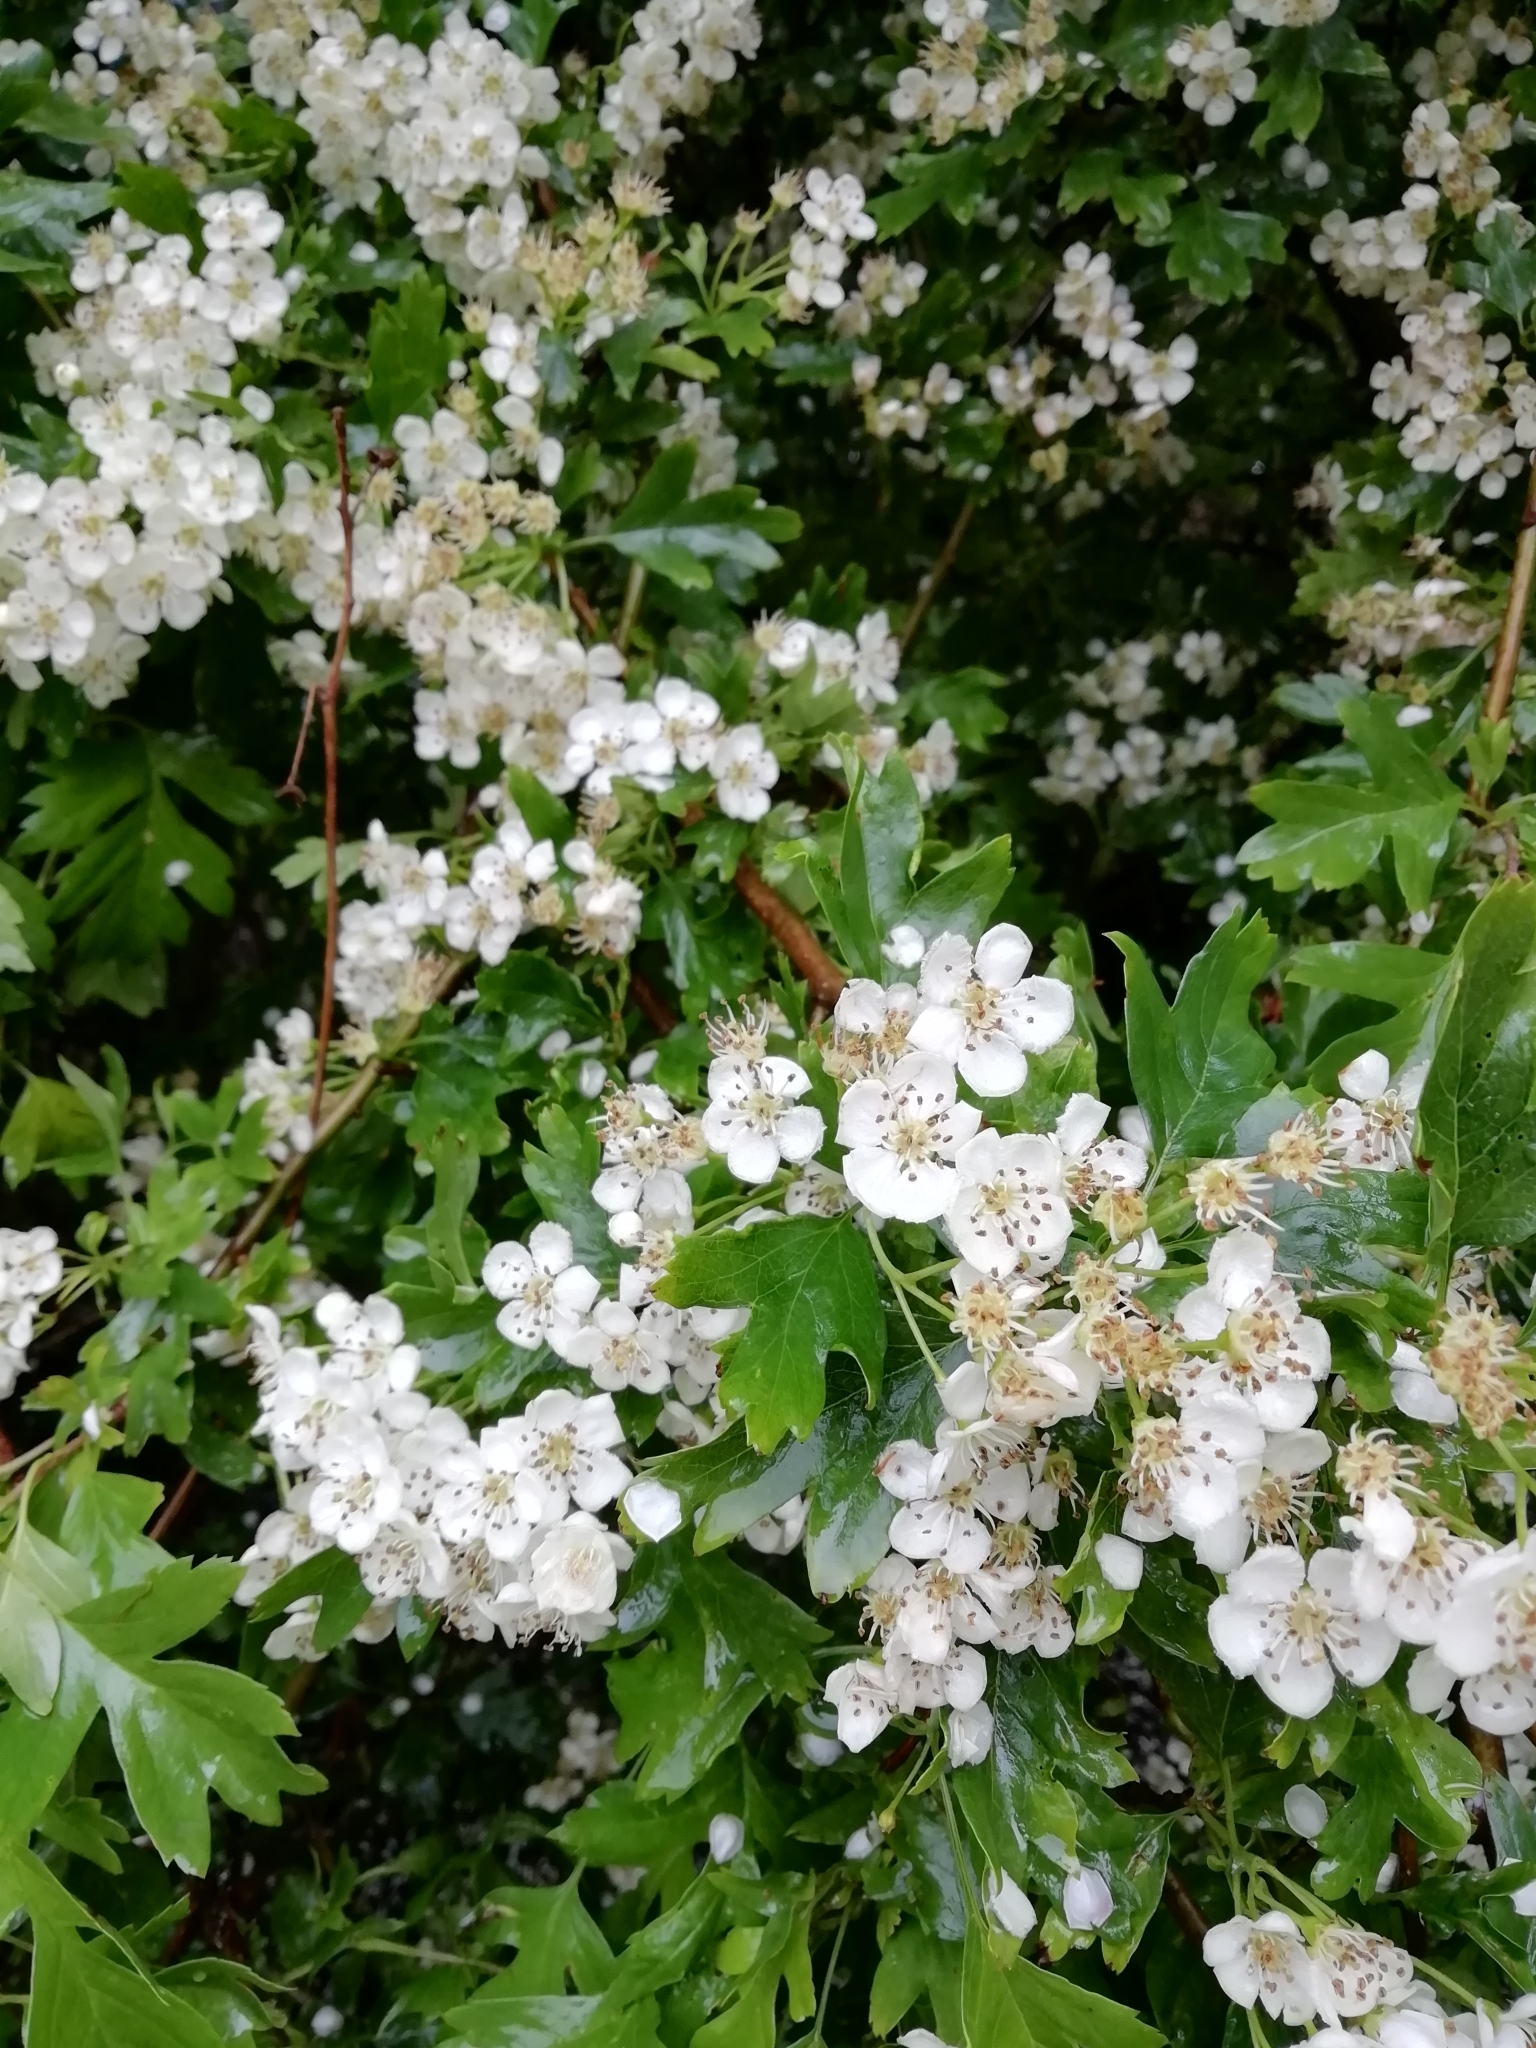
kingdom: Plantae
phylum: Tracheophyta
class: Magnoliopsida
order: Rosales
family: Rosaceae
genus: Crataegus
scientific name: Crataegus monogyna
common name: Hawthorn
